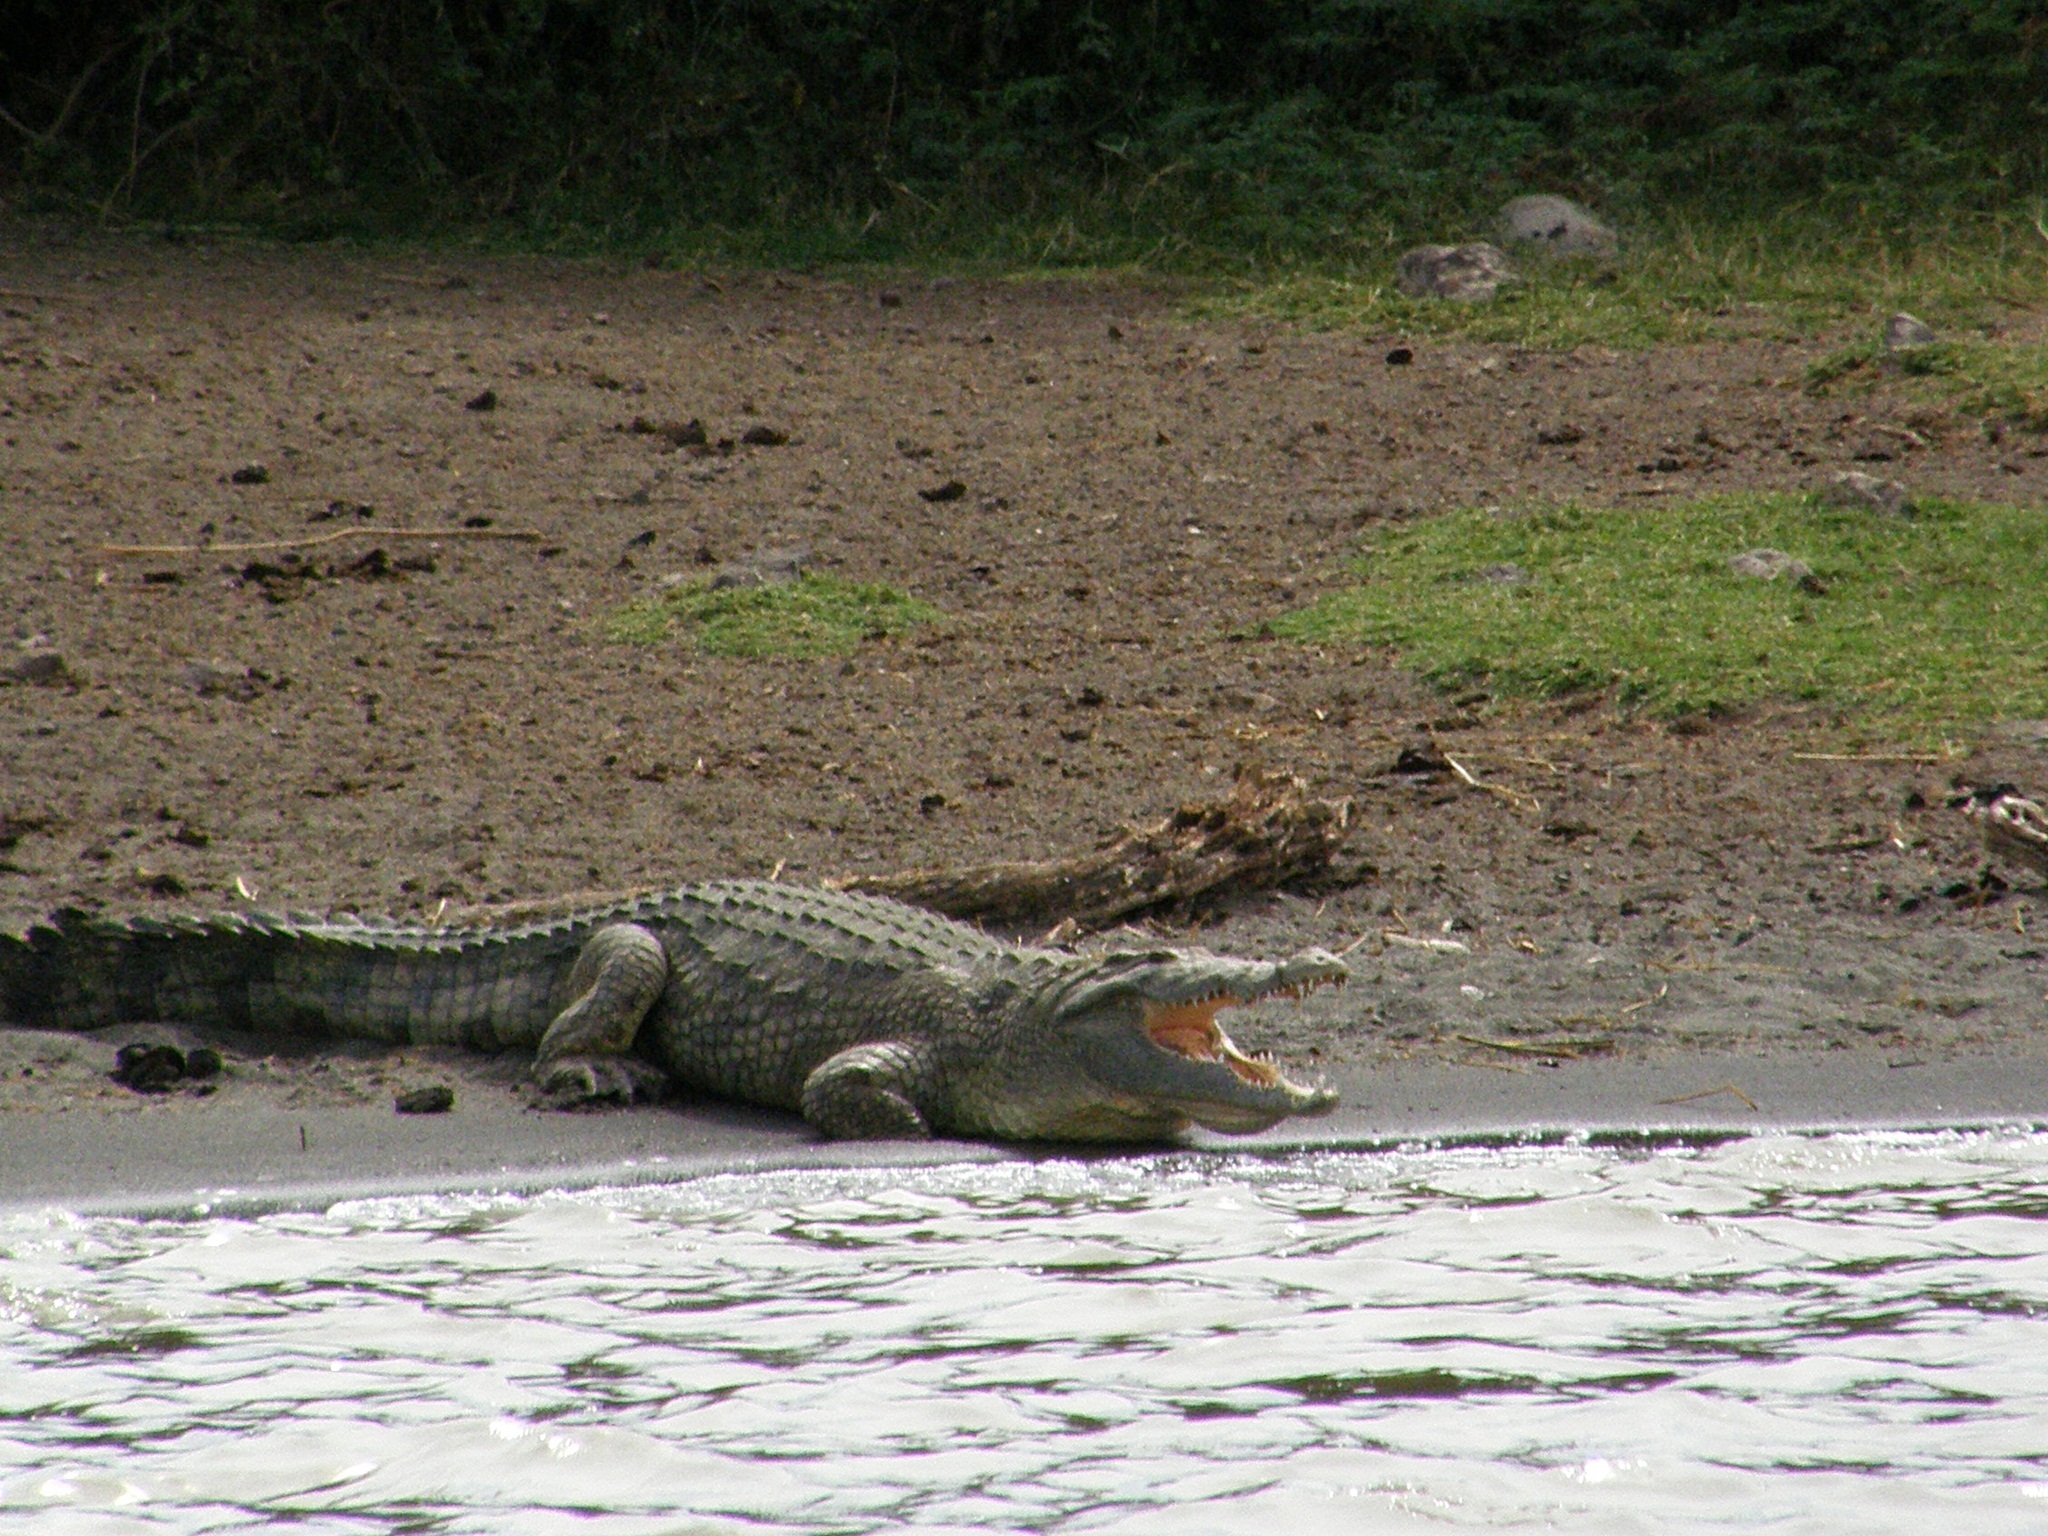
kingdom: Animalia
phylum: Chordata
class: Crocodylia
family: Crocodylidae
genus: Crocodylus
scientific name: Crocodylus niloticus
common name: Nile crocodile
